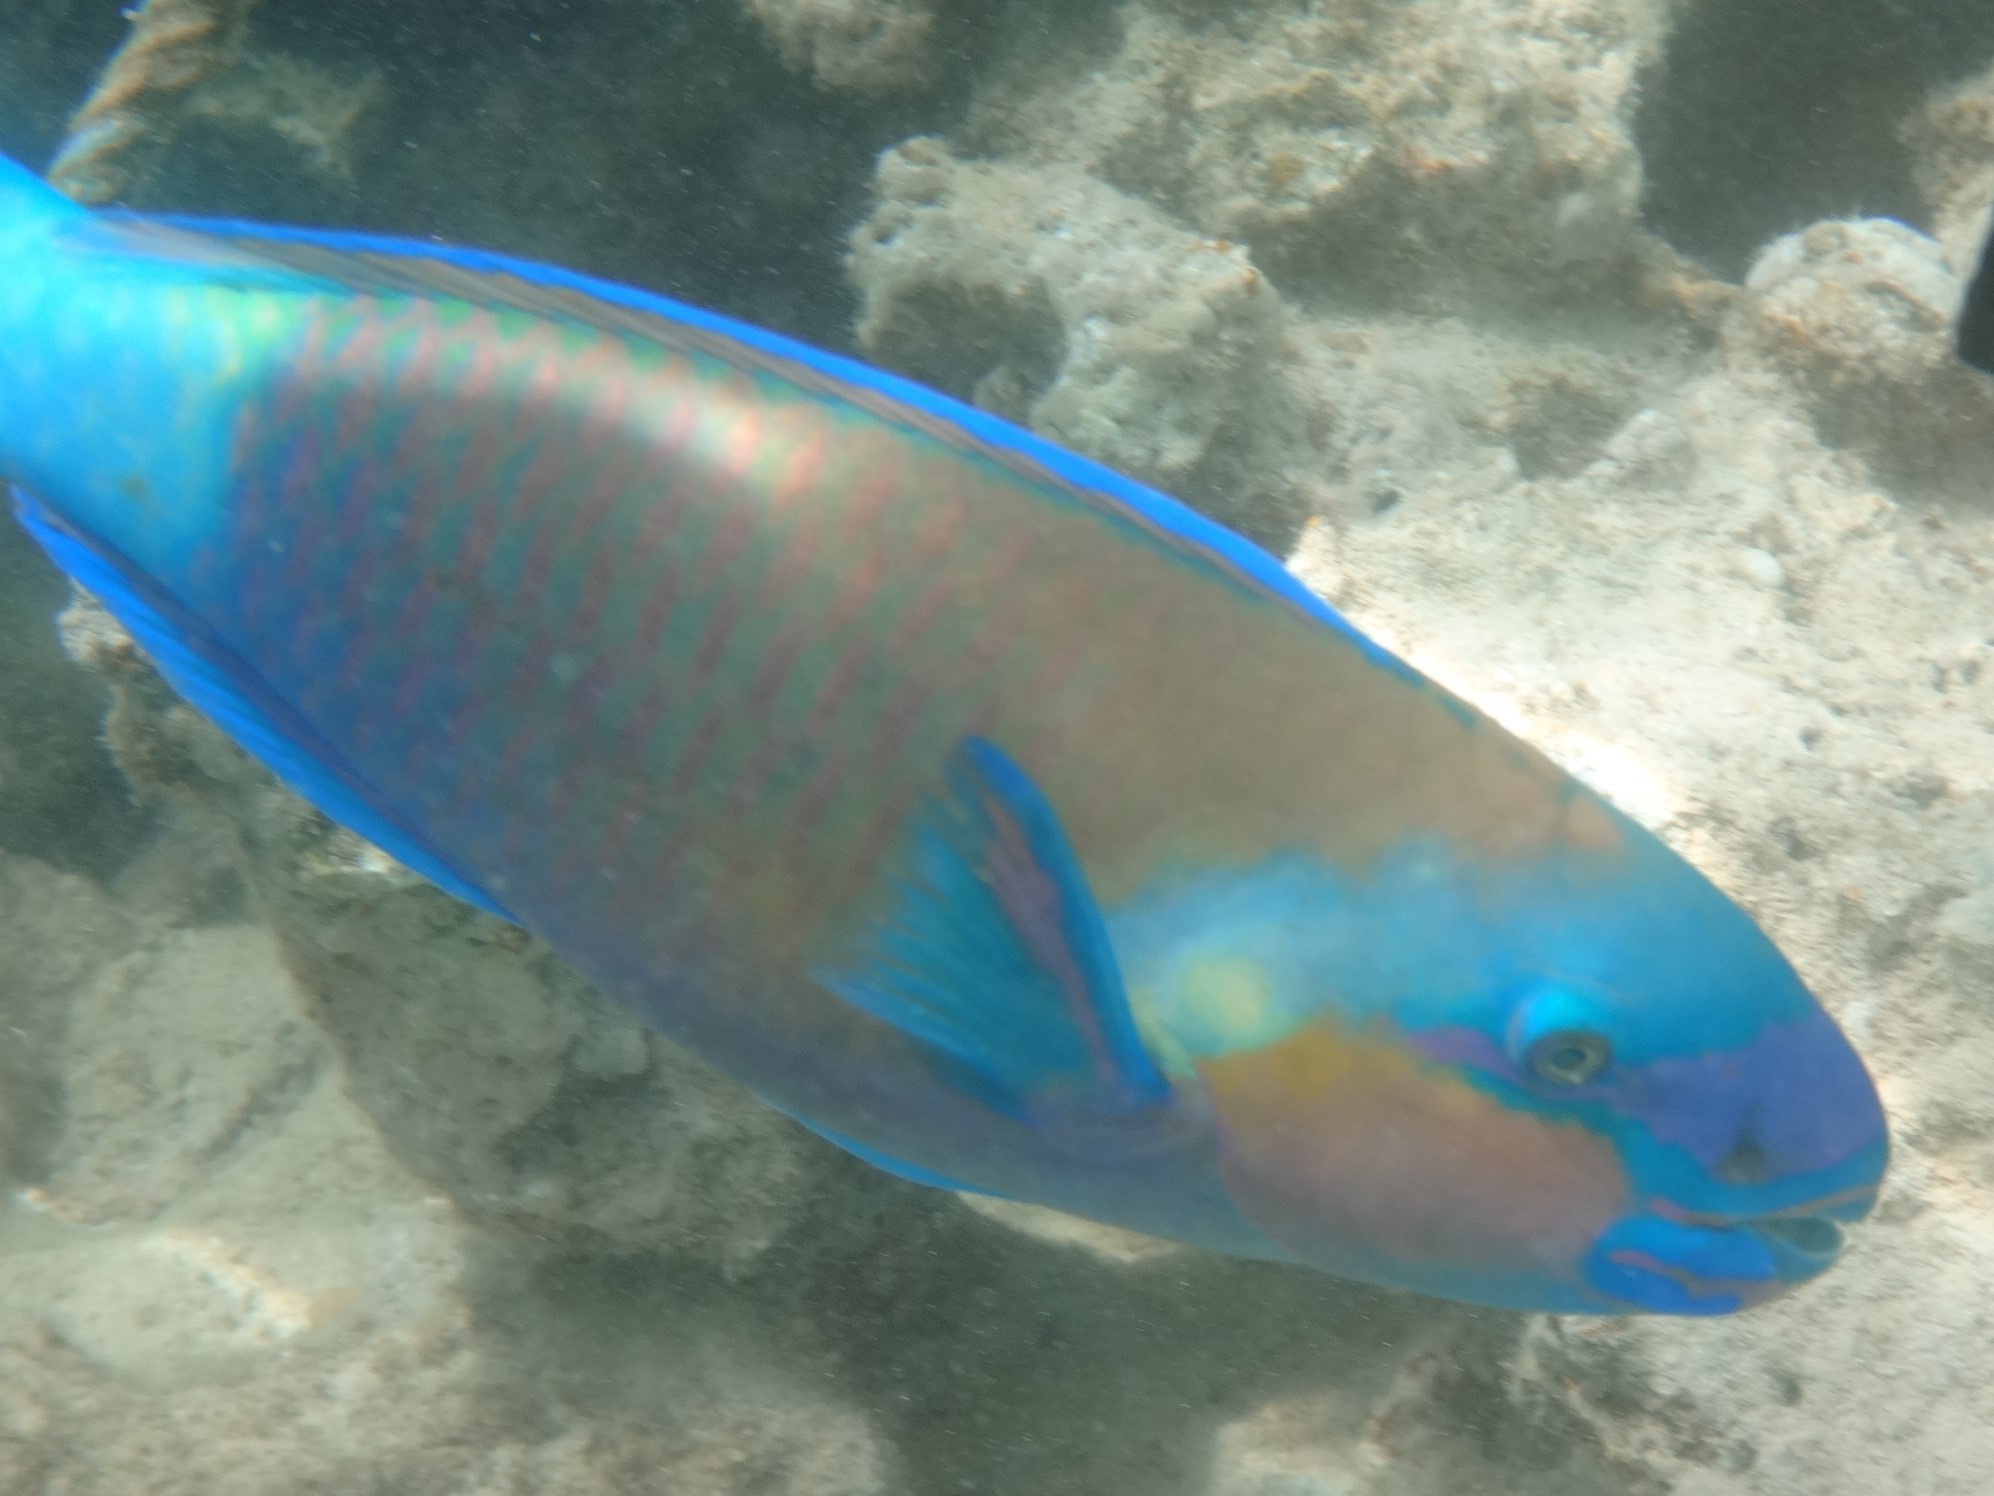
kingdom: Animalia
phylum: Chordata
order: Perciformes
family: Scaridae
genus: Chlorurus
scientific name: Chlorurus sordidus
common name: Bullethead parrotfish
